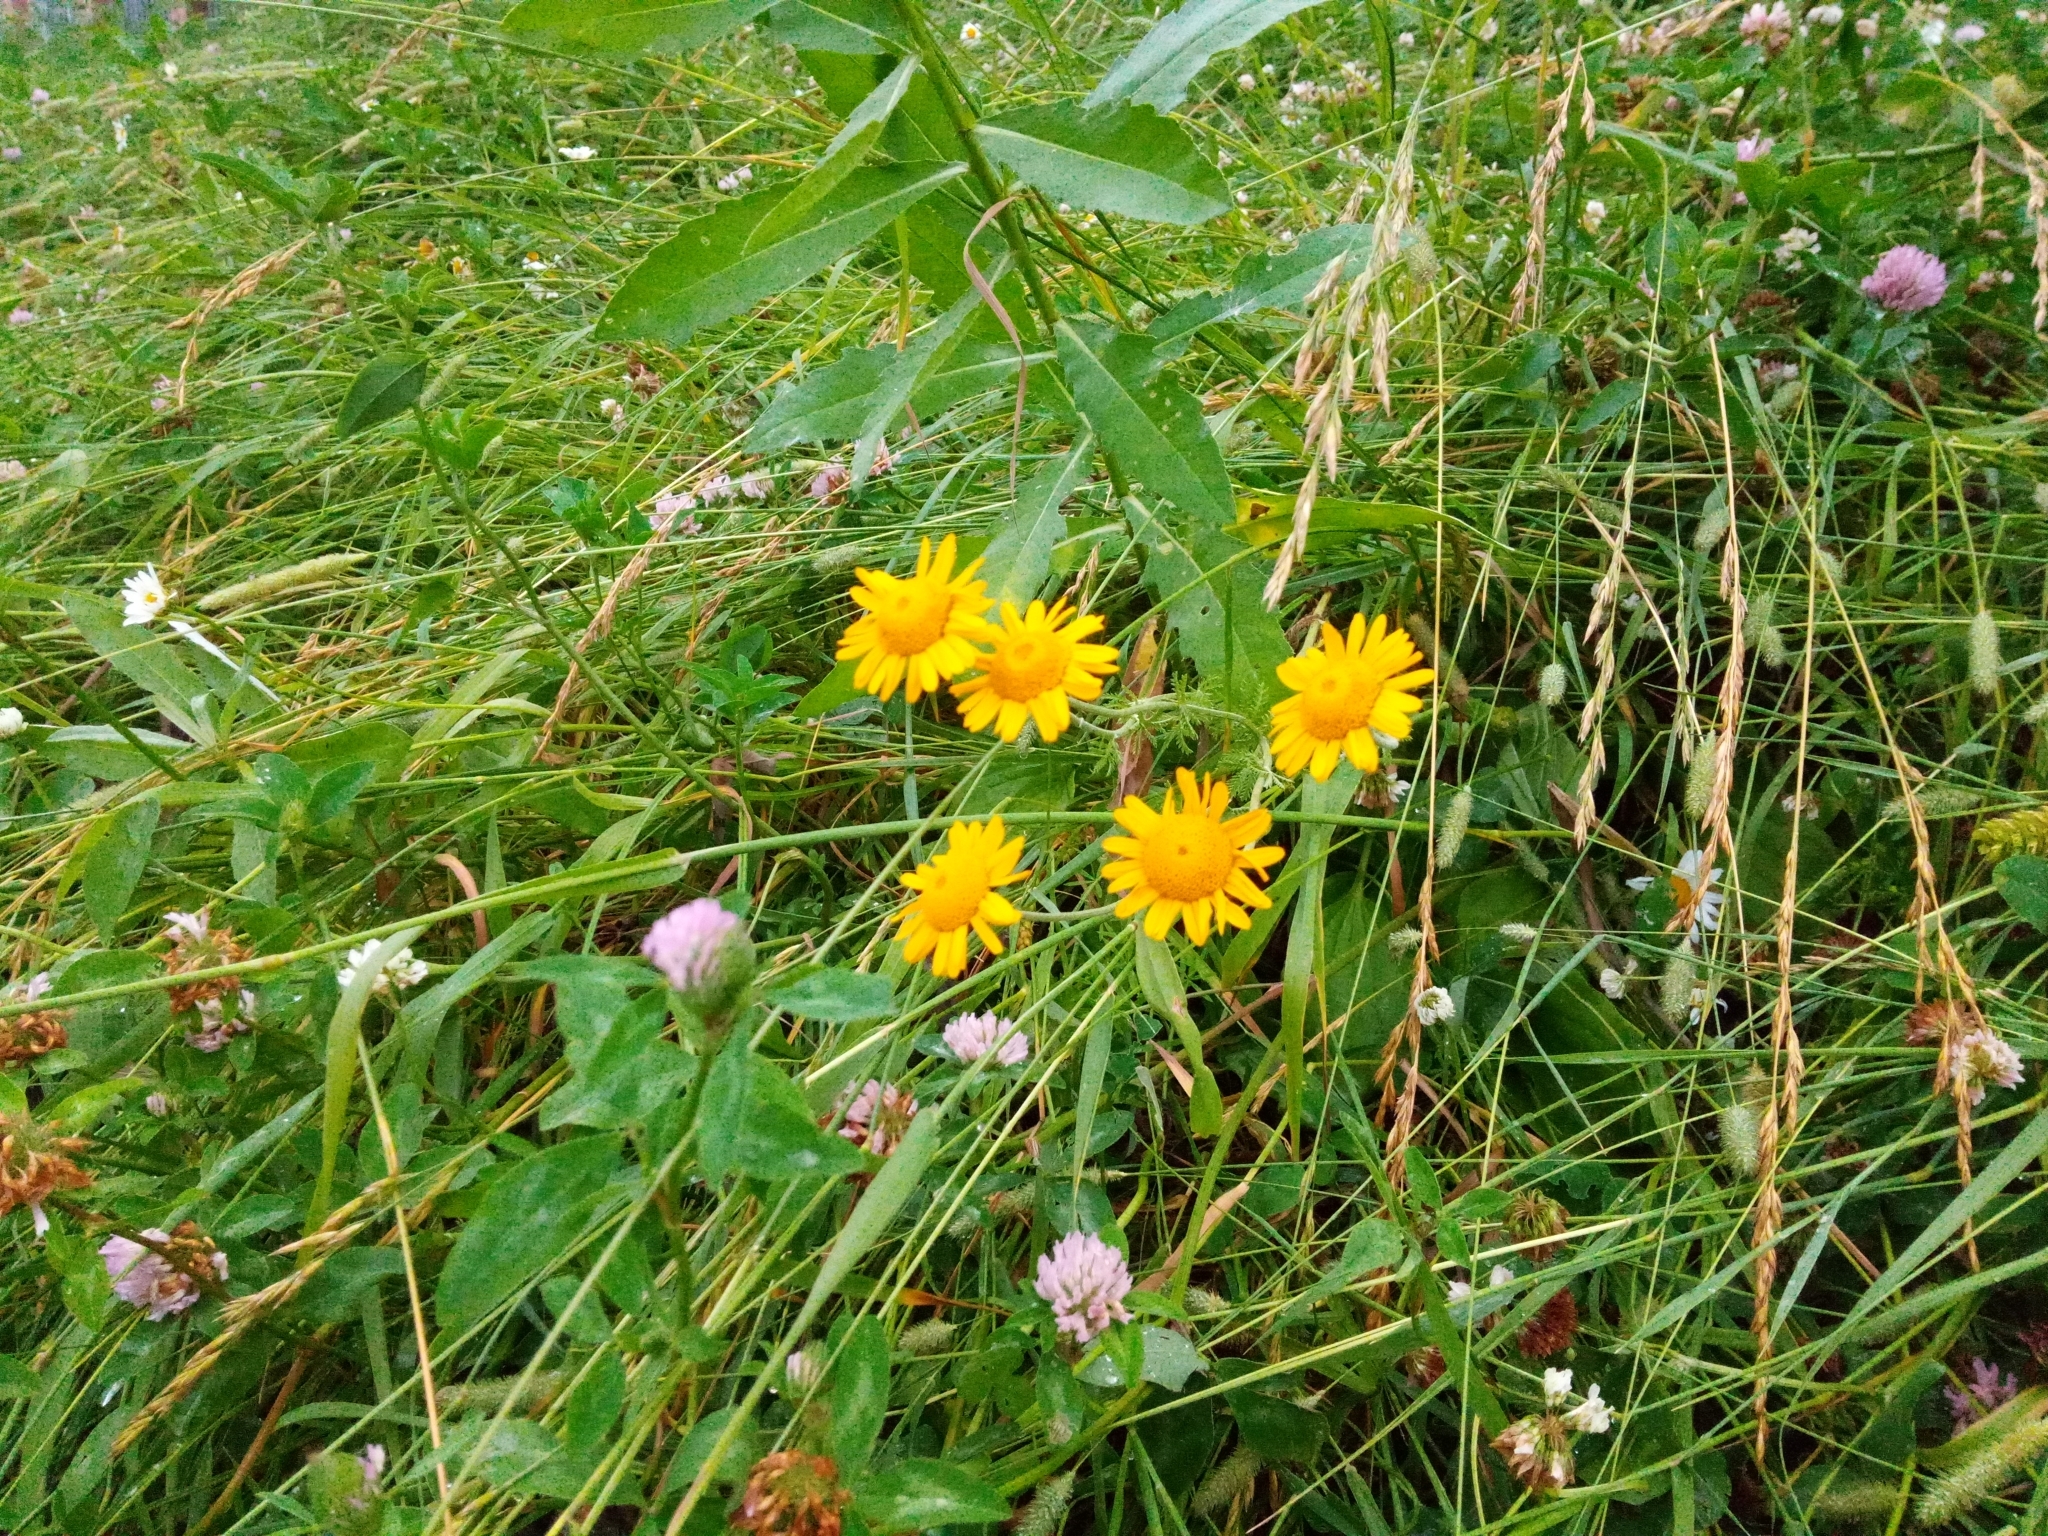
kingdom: Plantae
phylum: Tracheophyta
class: Magnoliopsida
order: Asterales
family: Asteraceae
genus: Cota
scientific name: Cota tinctoria
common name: Golden chamomile
